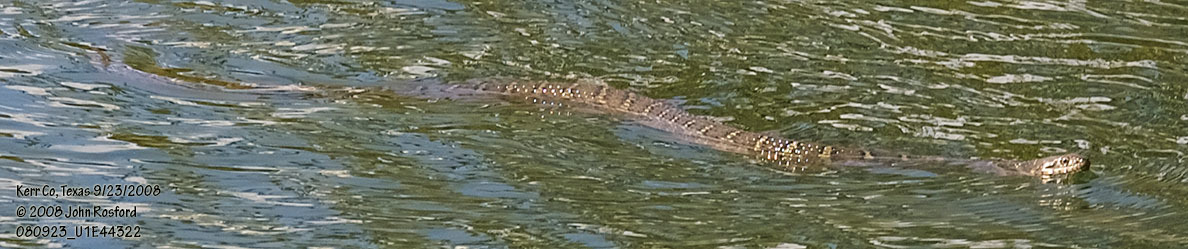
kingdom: Animalia
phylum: Chordata
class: Squamata
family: Colubridae
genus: Nerodia
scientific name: Nerodia erythrogaster
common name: Plainbelly water snake
